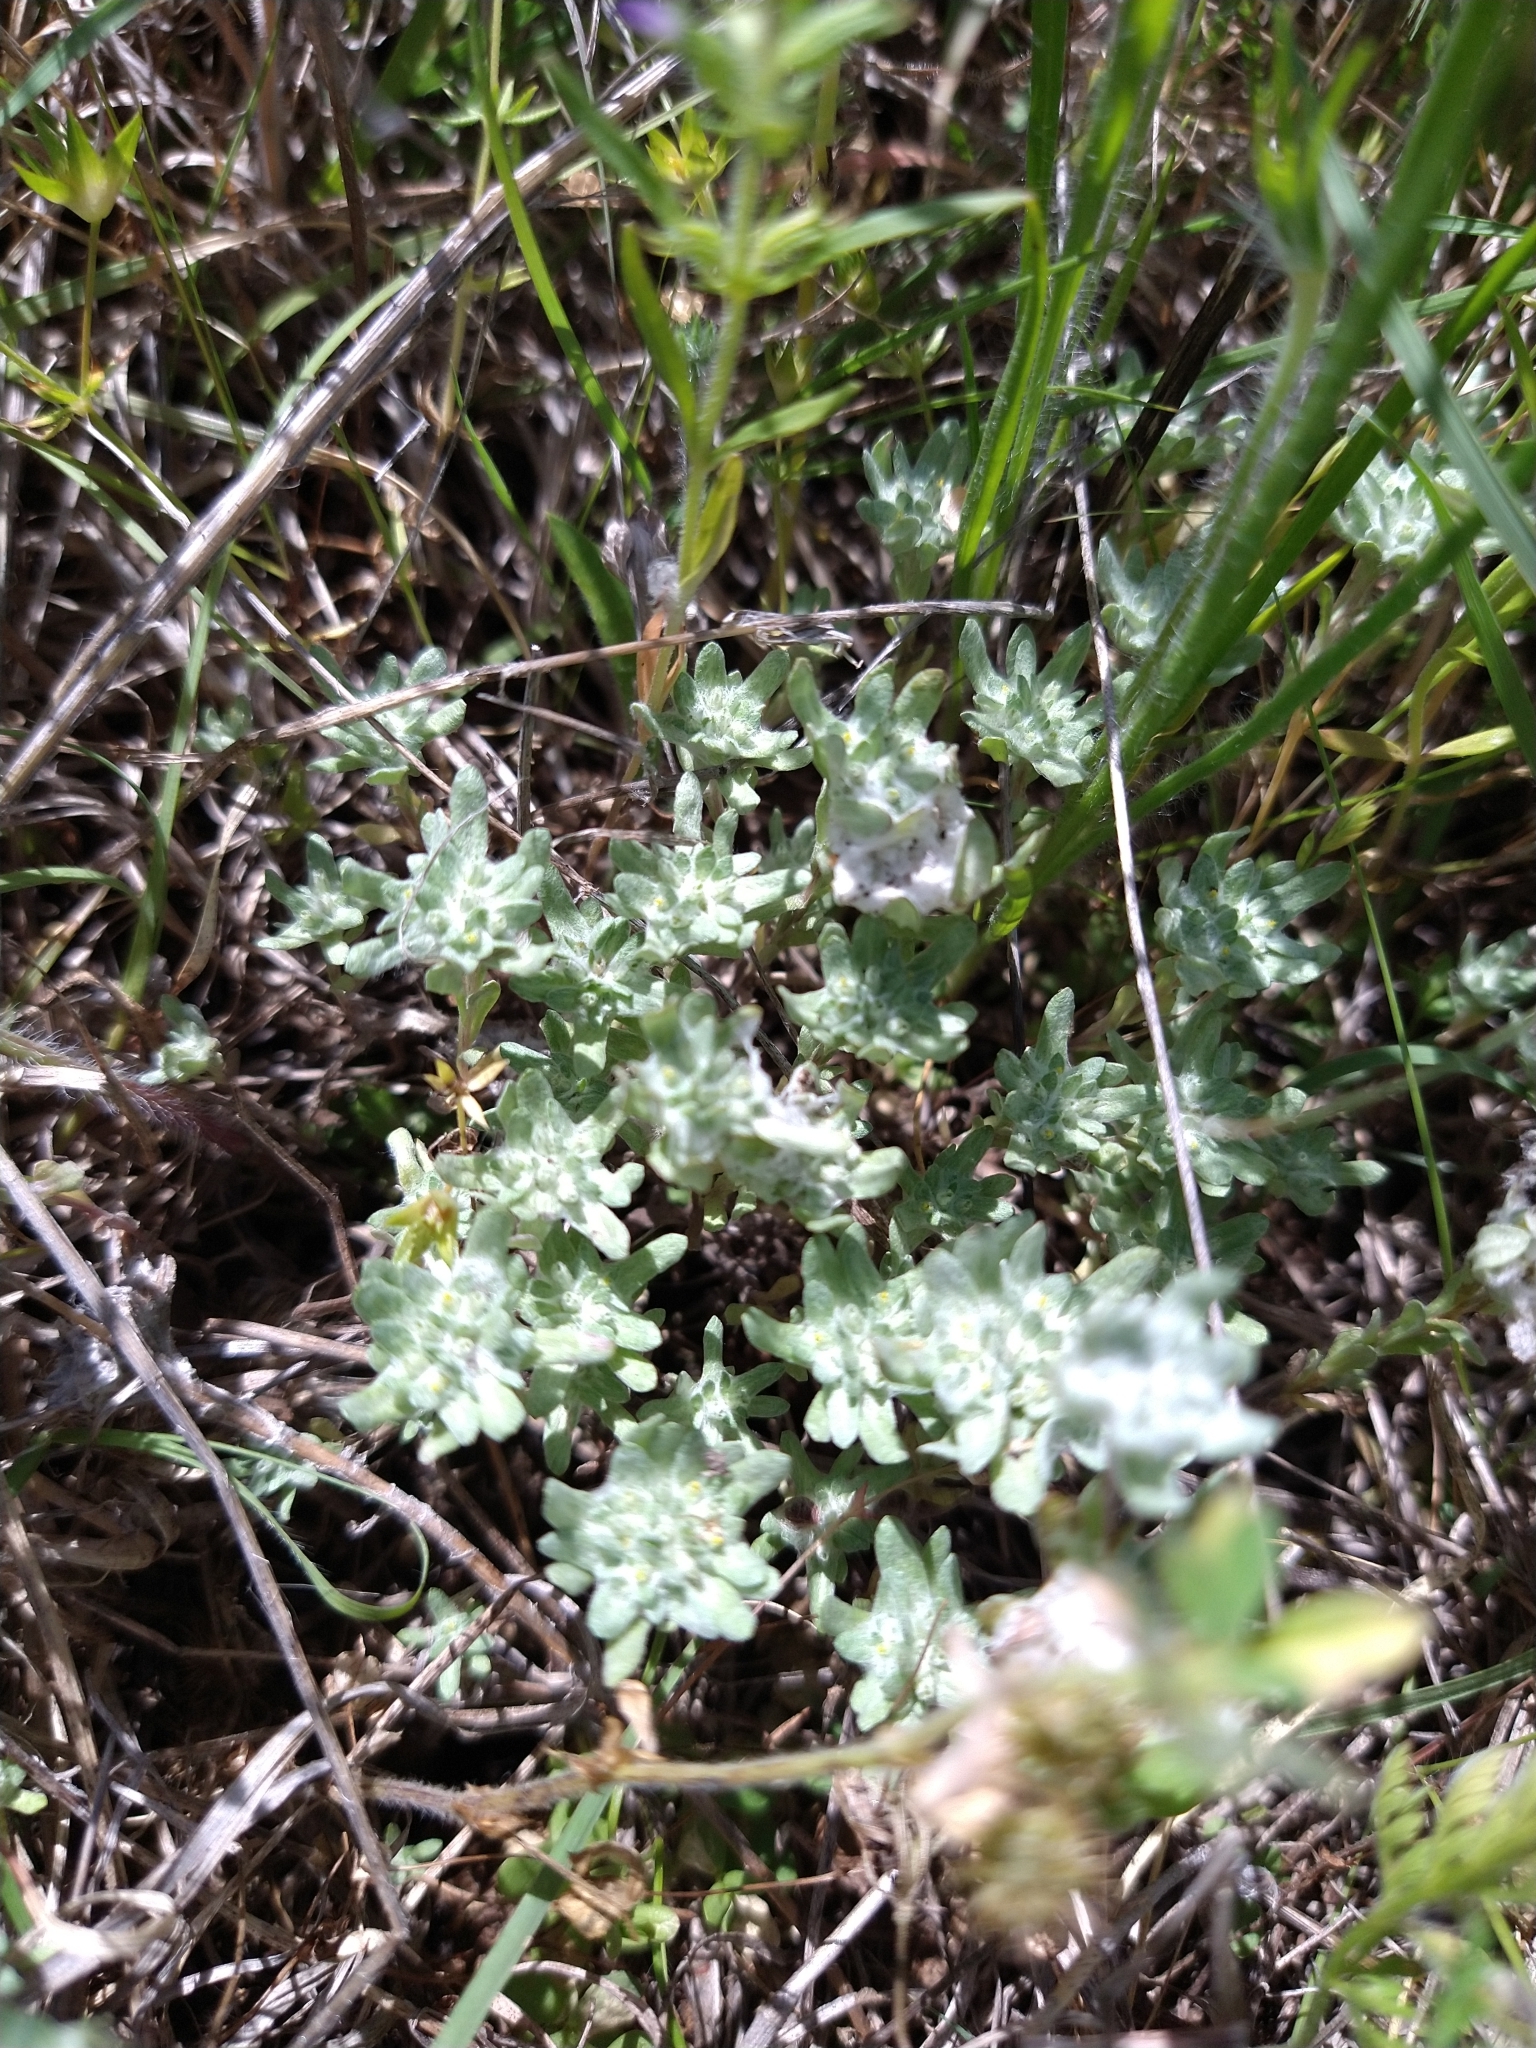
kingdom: Plantae
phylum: Tracheophyta
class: Magnoliopsida
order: Asterales
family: Asteraceae
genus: Diaperia
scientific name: Diaperia prolifera
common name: Big-head rabbit-tobacco
